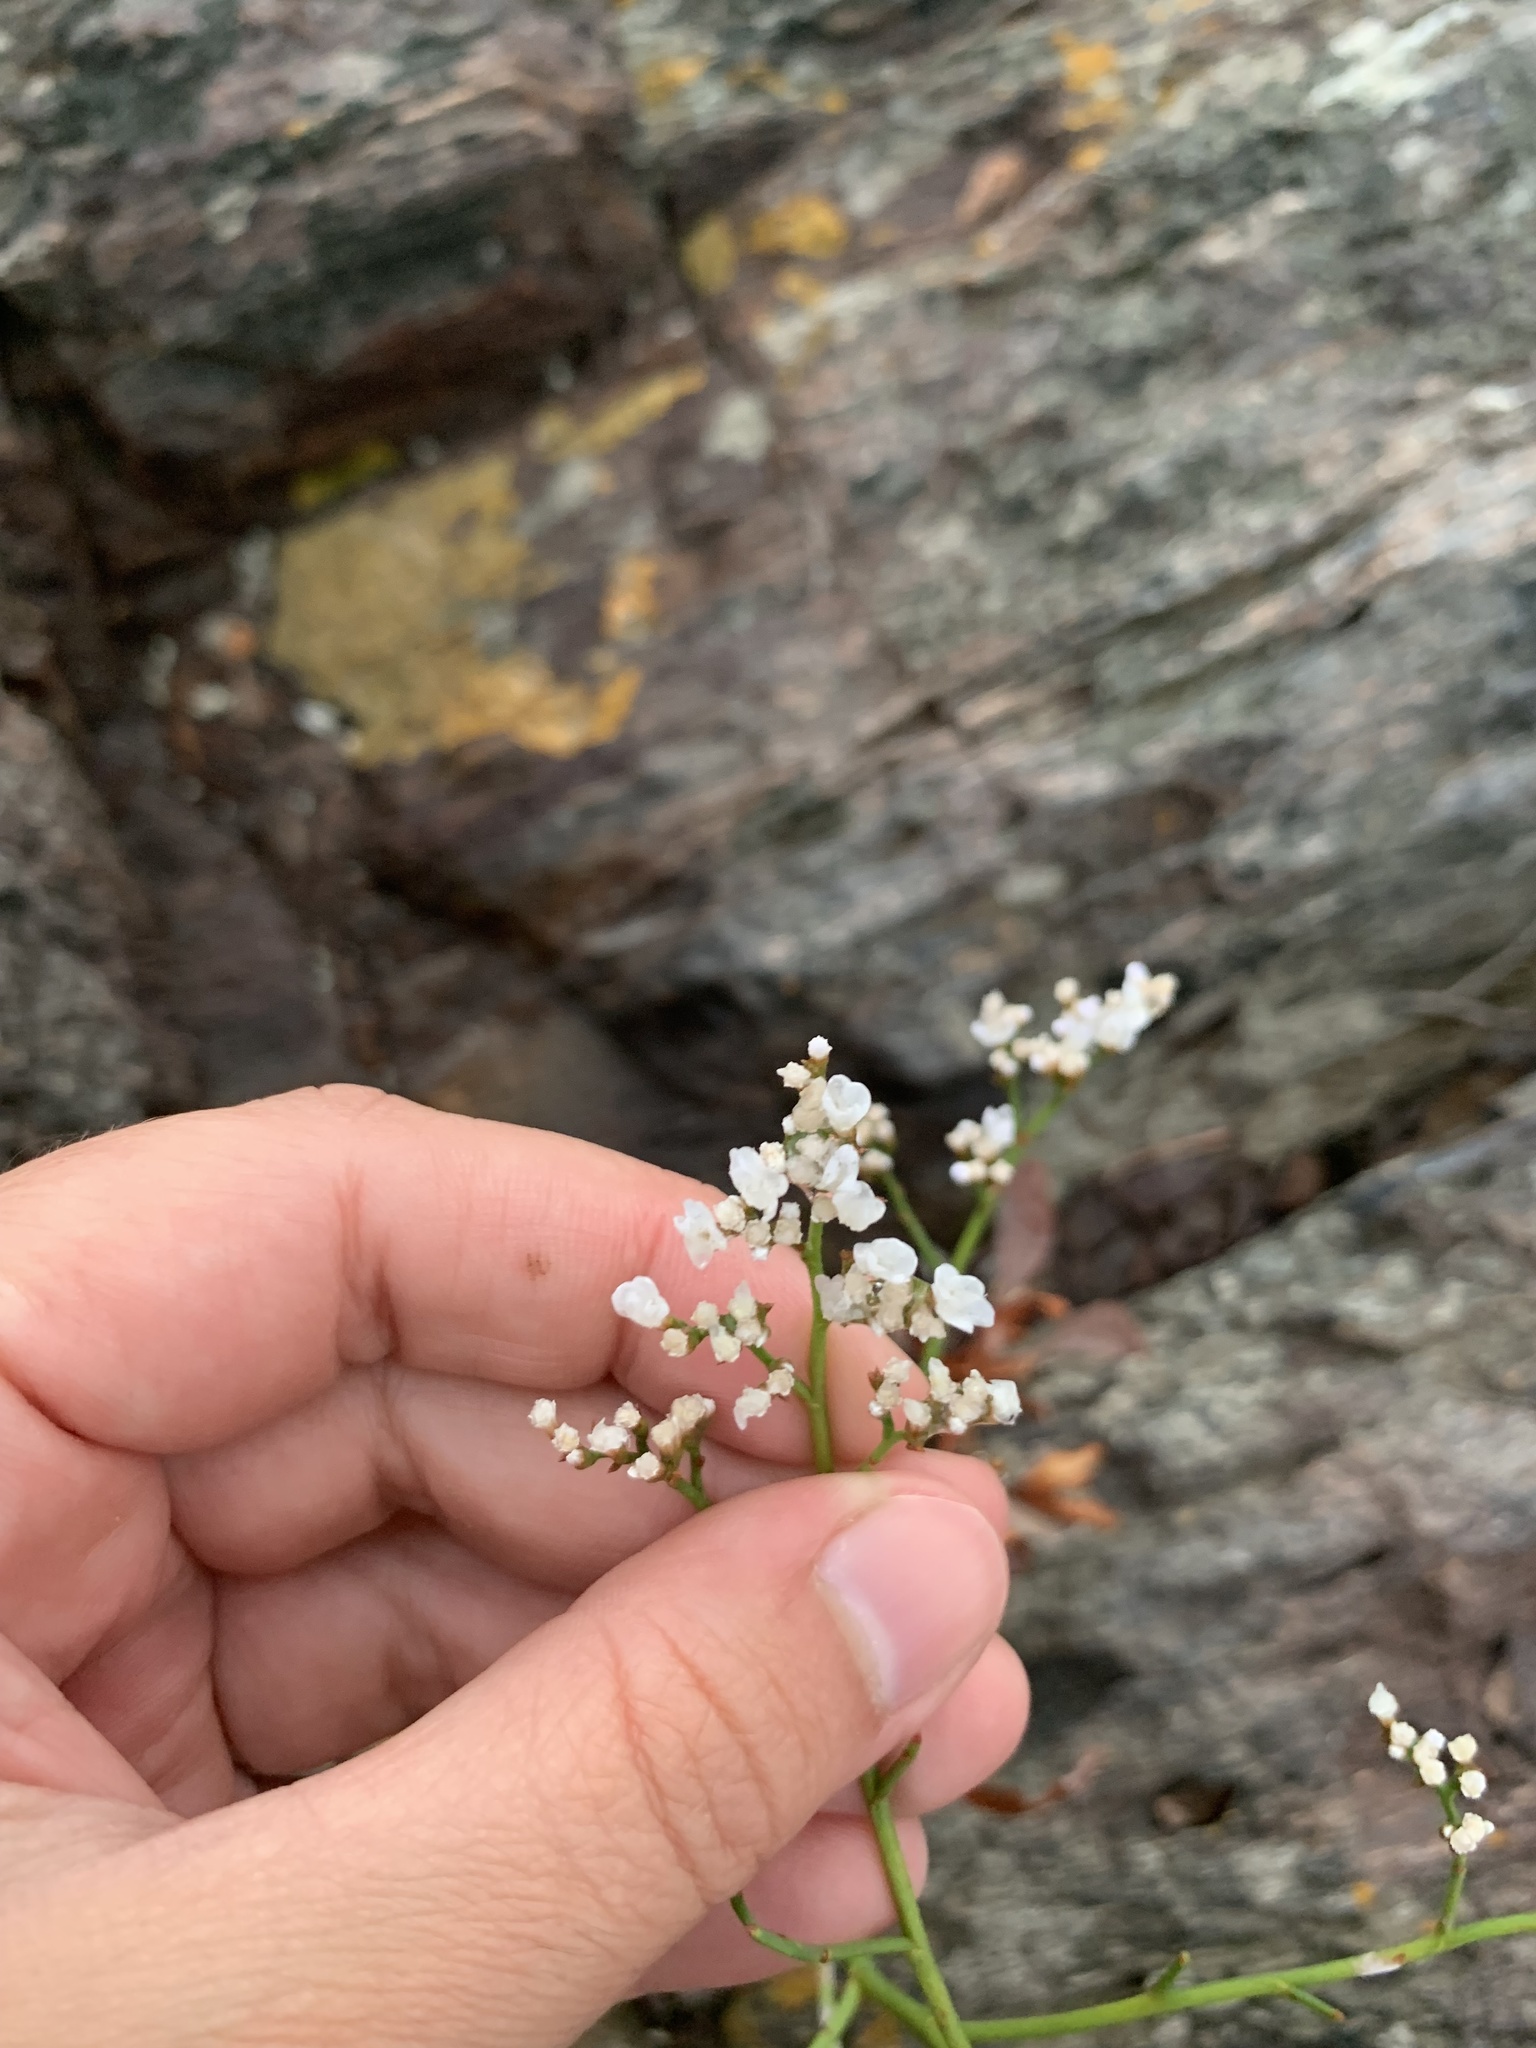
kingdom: Plantae
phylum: Tracheophyta
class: Magnoliopsida
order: Caryophyllales
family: Plumbaginaceae
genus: Limonium
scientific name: Limonium brasiliense
